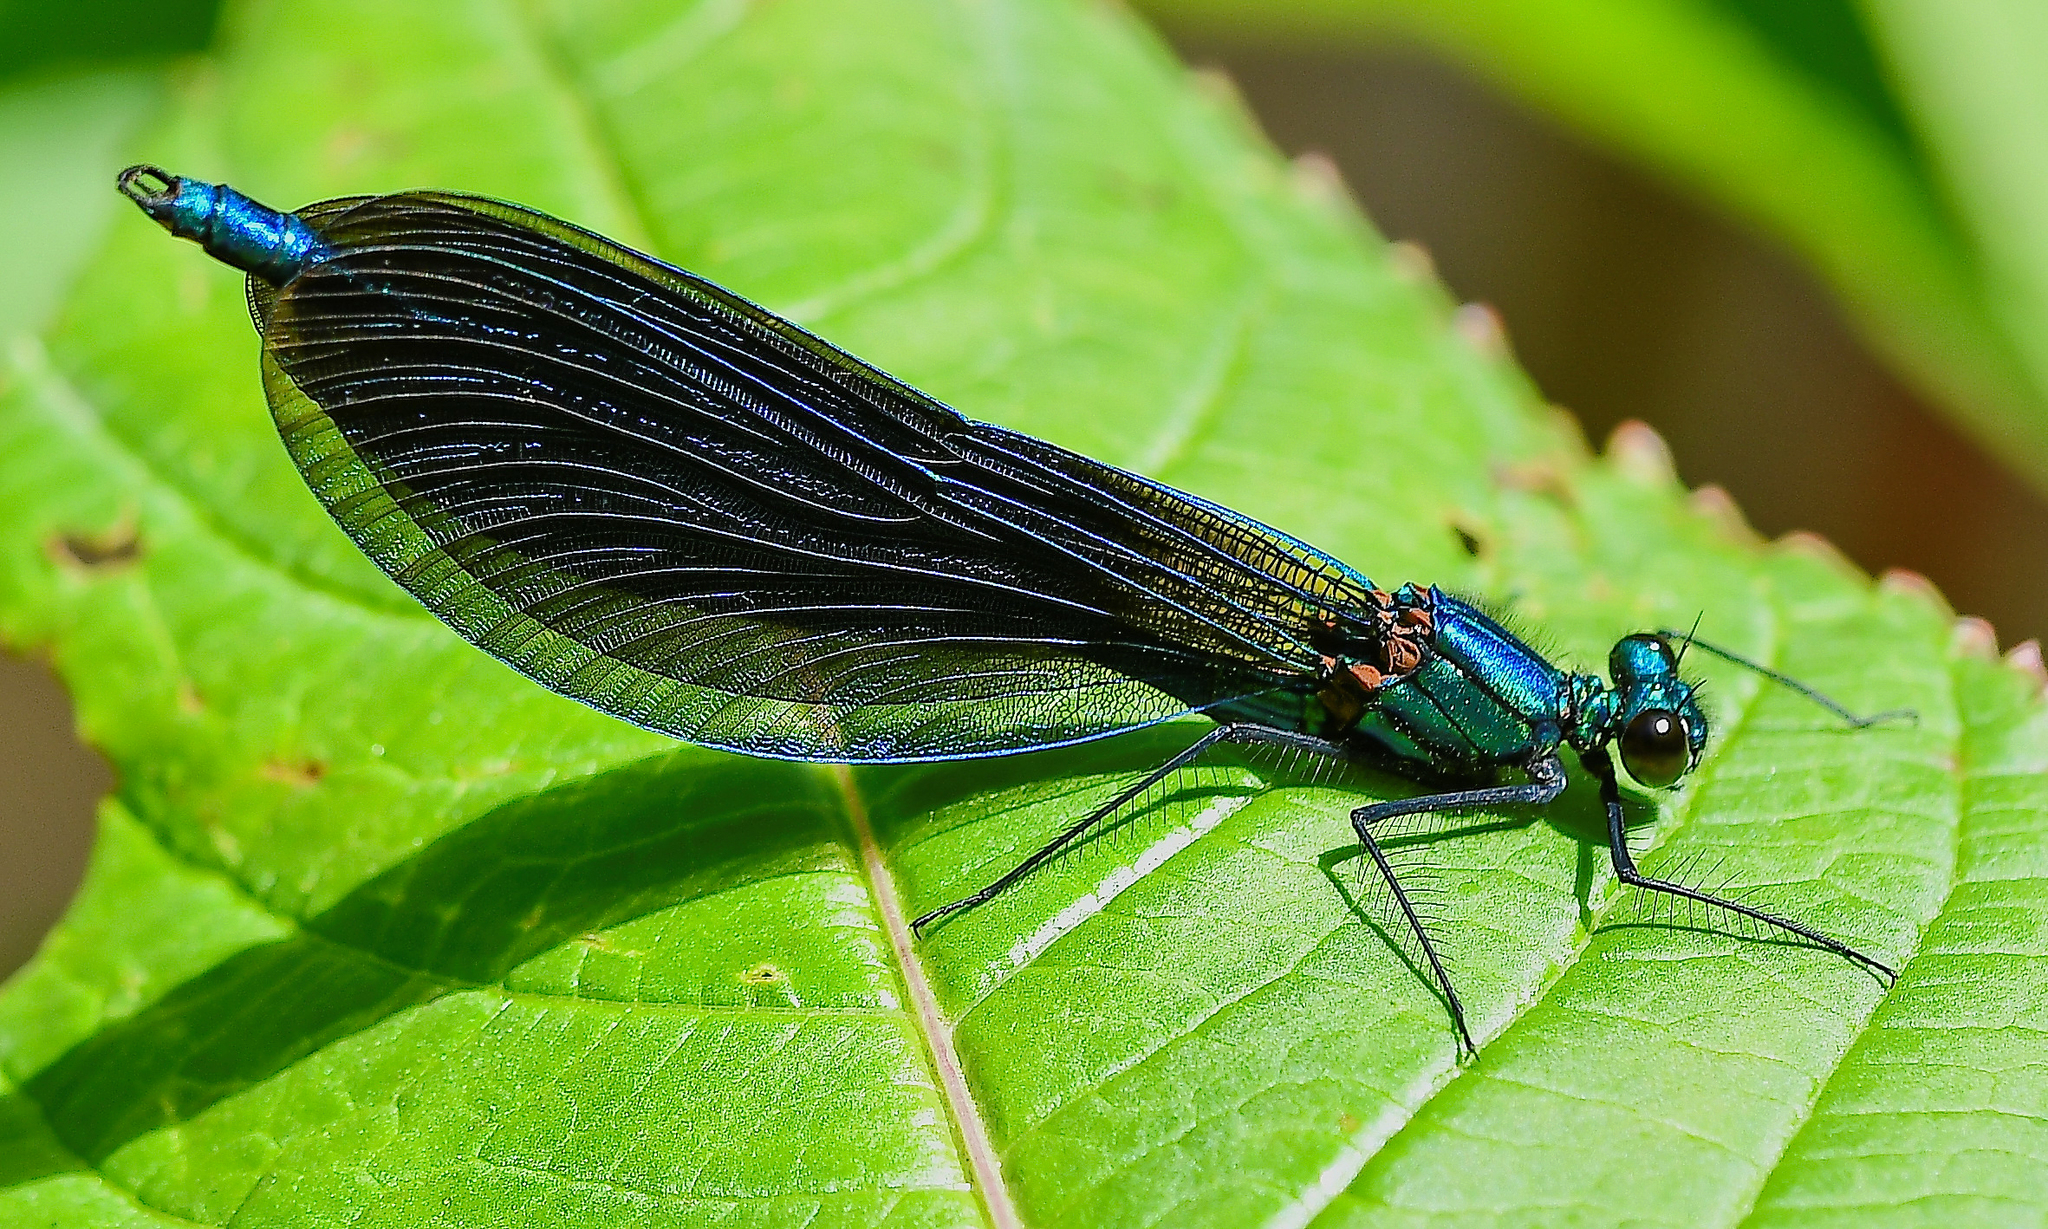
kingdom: Animalia
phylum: Arthropoda
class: Insecta
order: Odonata
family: Calopterygidae
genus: Calopteryx
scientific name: Calopteryx virgo
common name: Beautiful demoiselle
